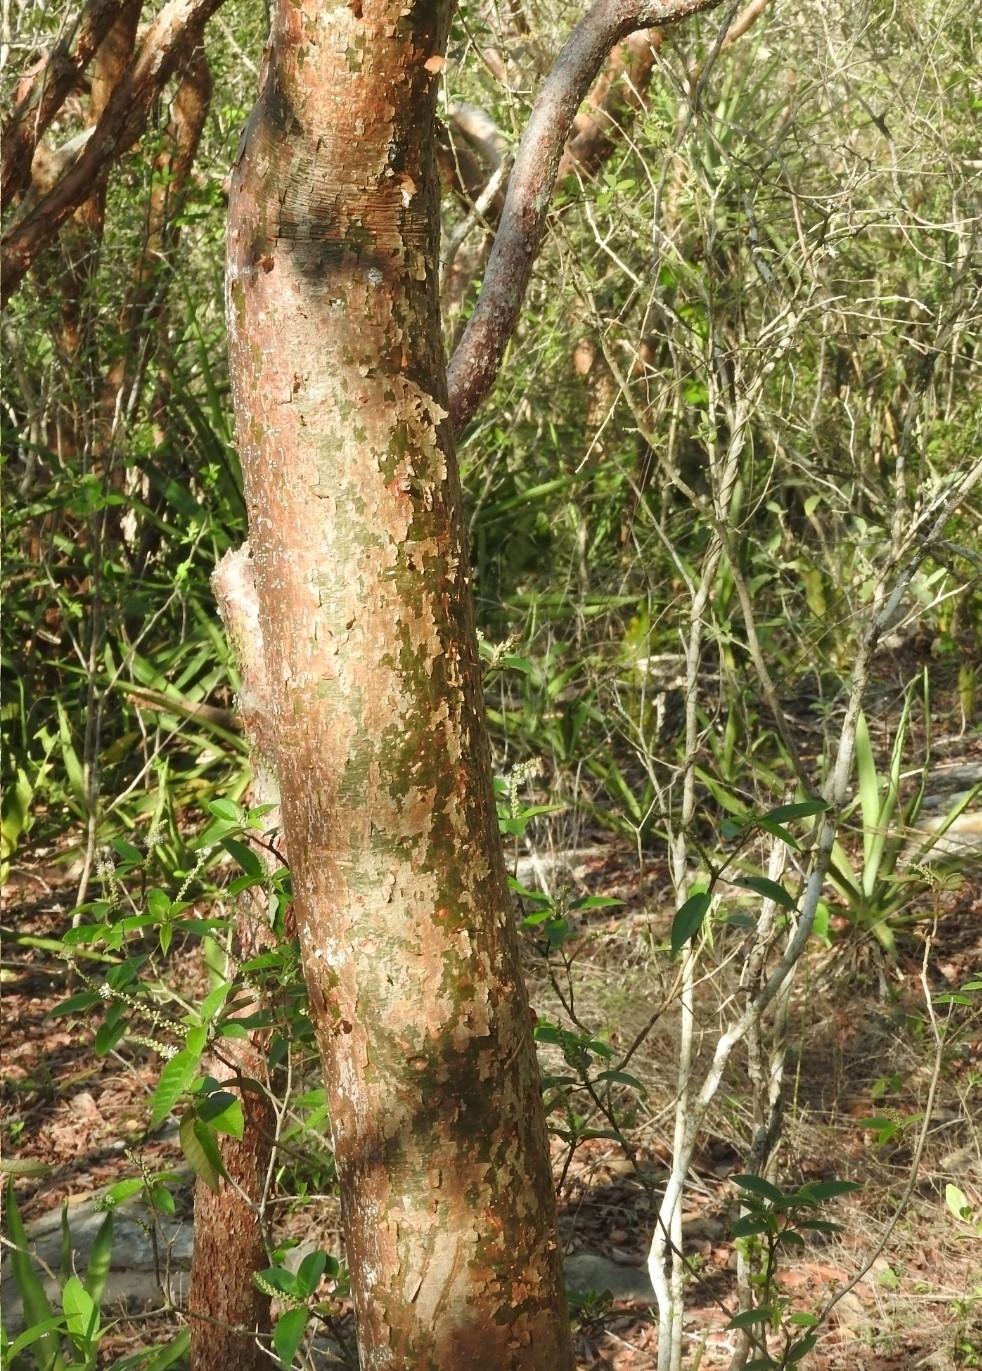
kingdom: Plantae
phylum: Tracheophyta
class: Magnoliopsida
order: Sapindales
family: Burseraceae
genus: Bursera
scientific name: Bursera simaruba
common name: Turpentine tree
